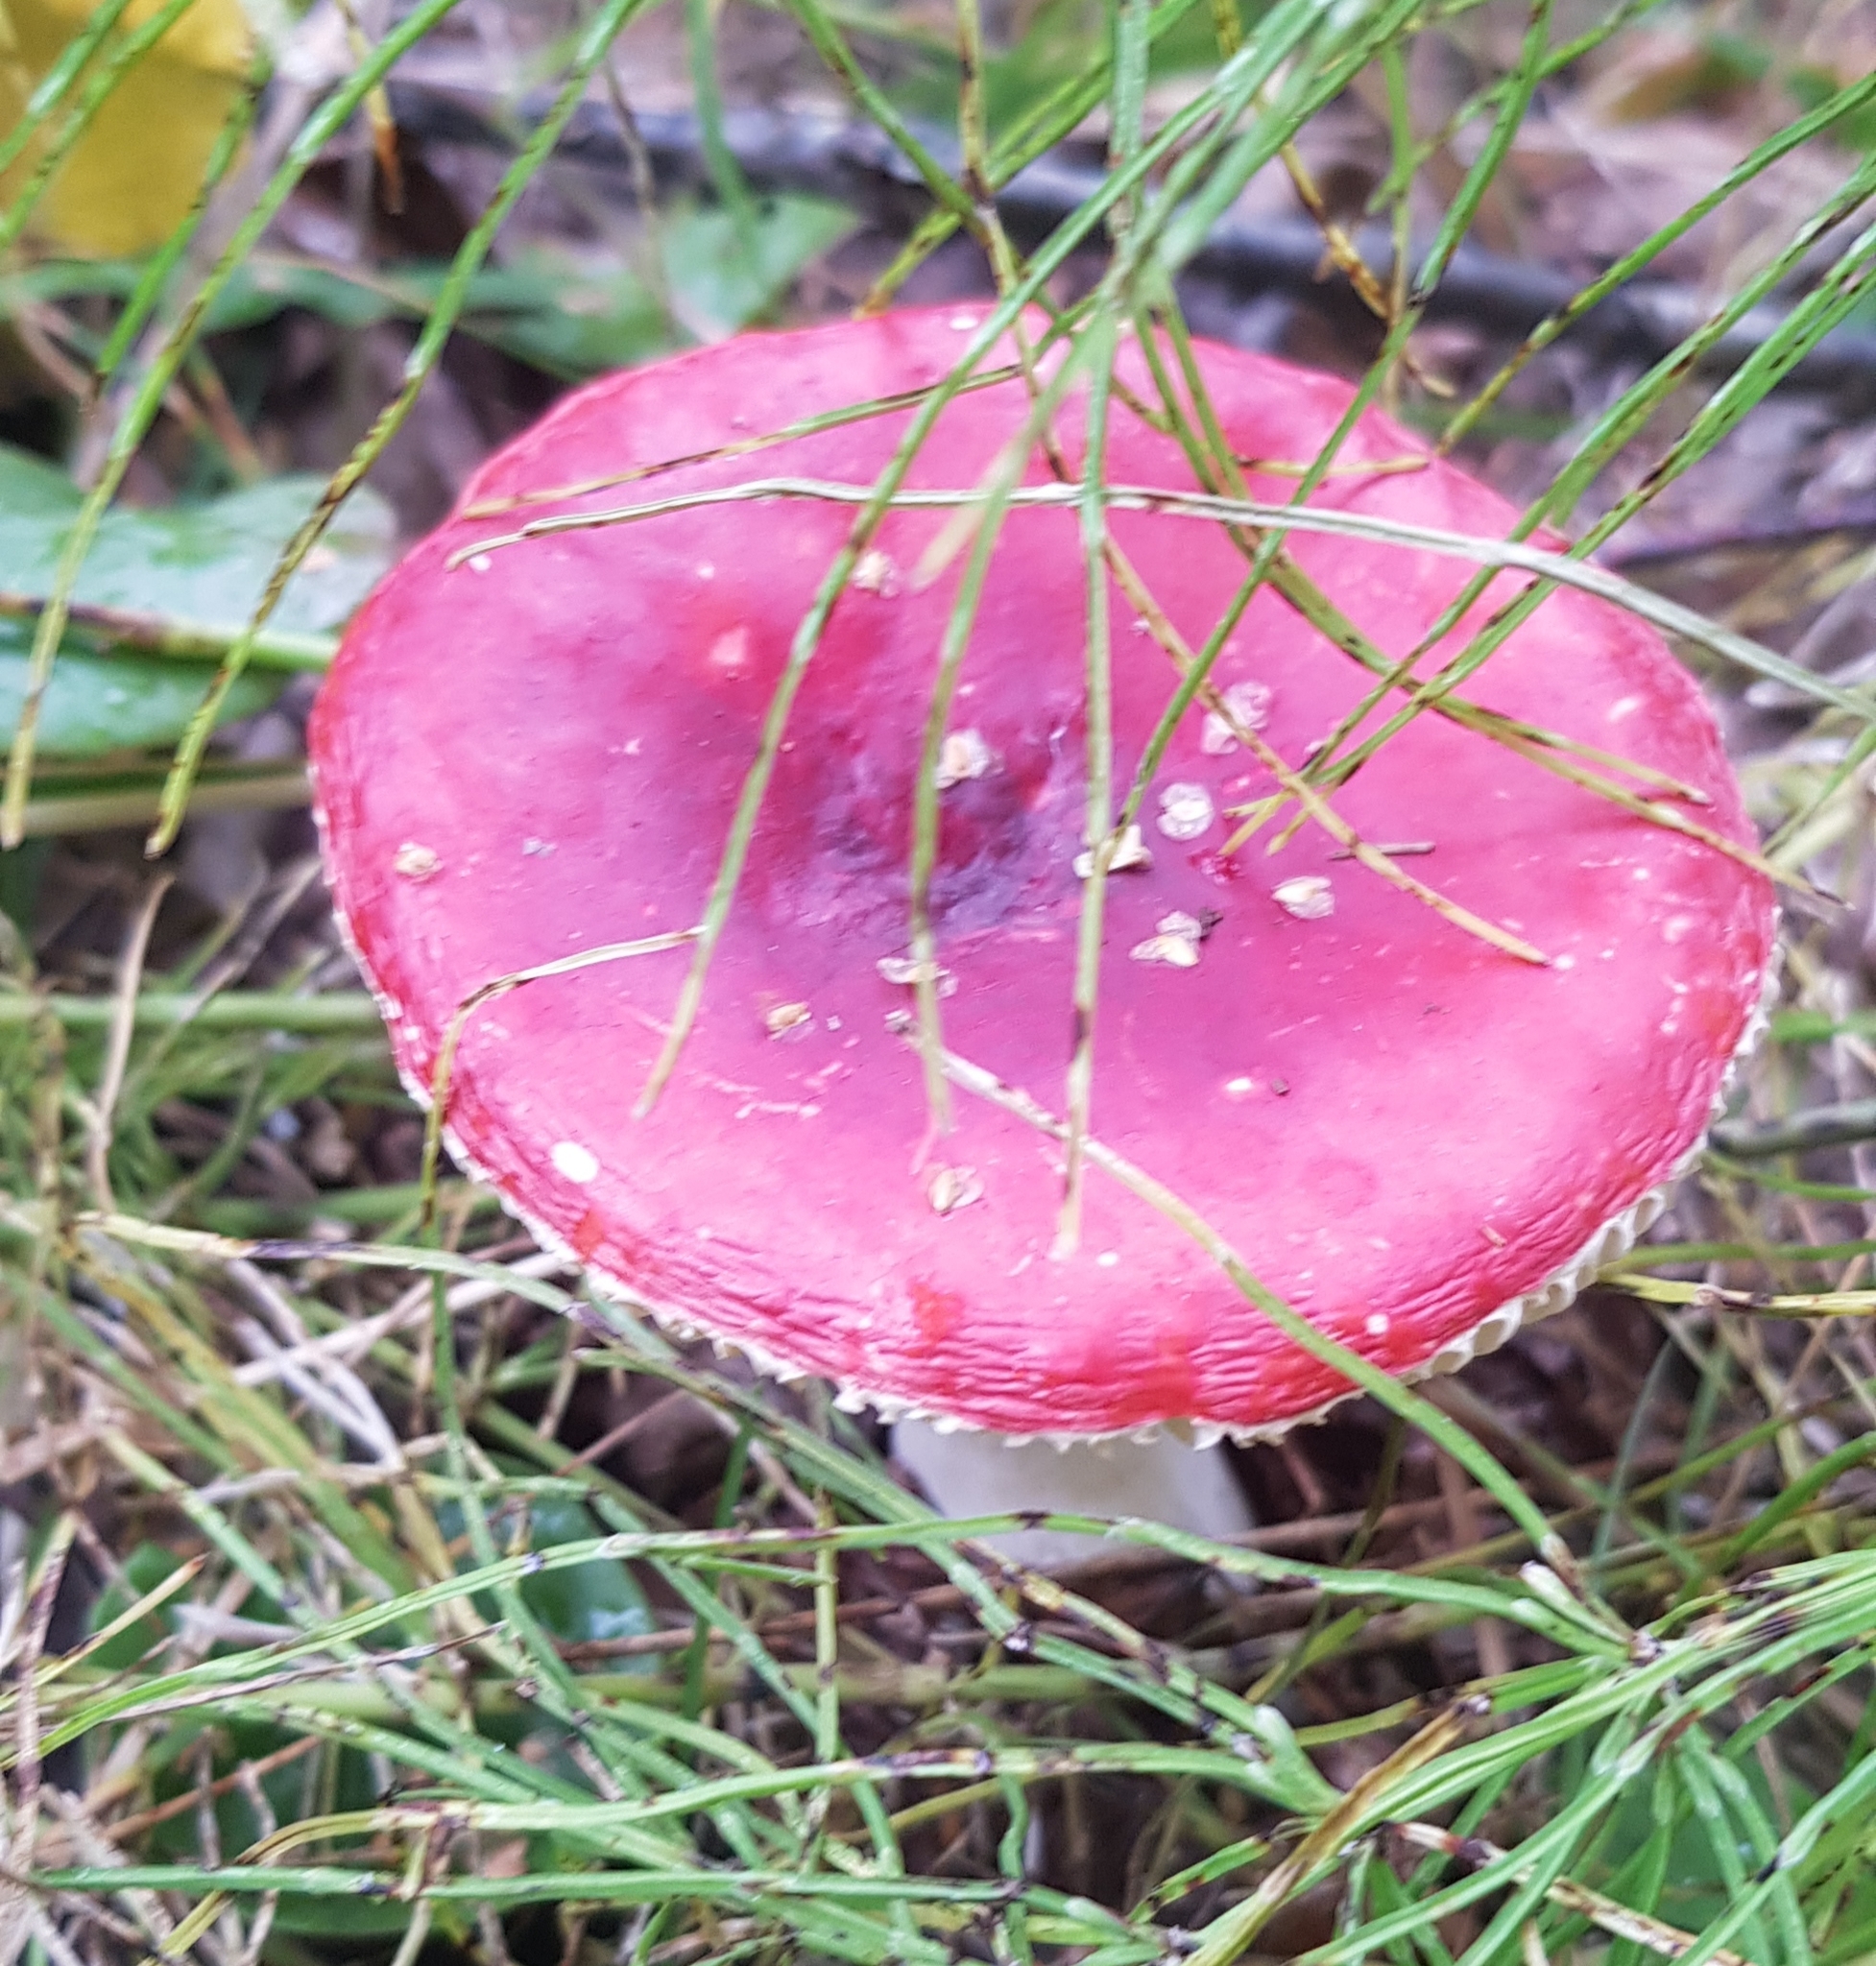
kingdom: Fungi
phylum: Basidiomycota
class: Agaricomycetes
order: Russulales
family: Russulaceae
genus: Russula
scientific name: Russula paludosa
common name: Hintapink
